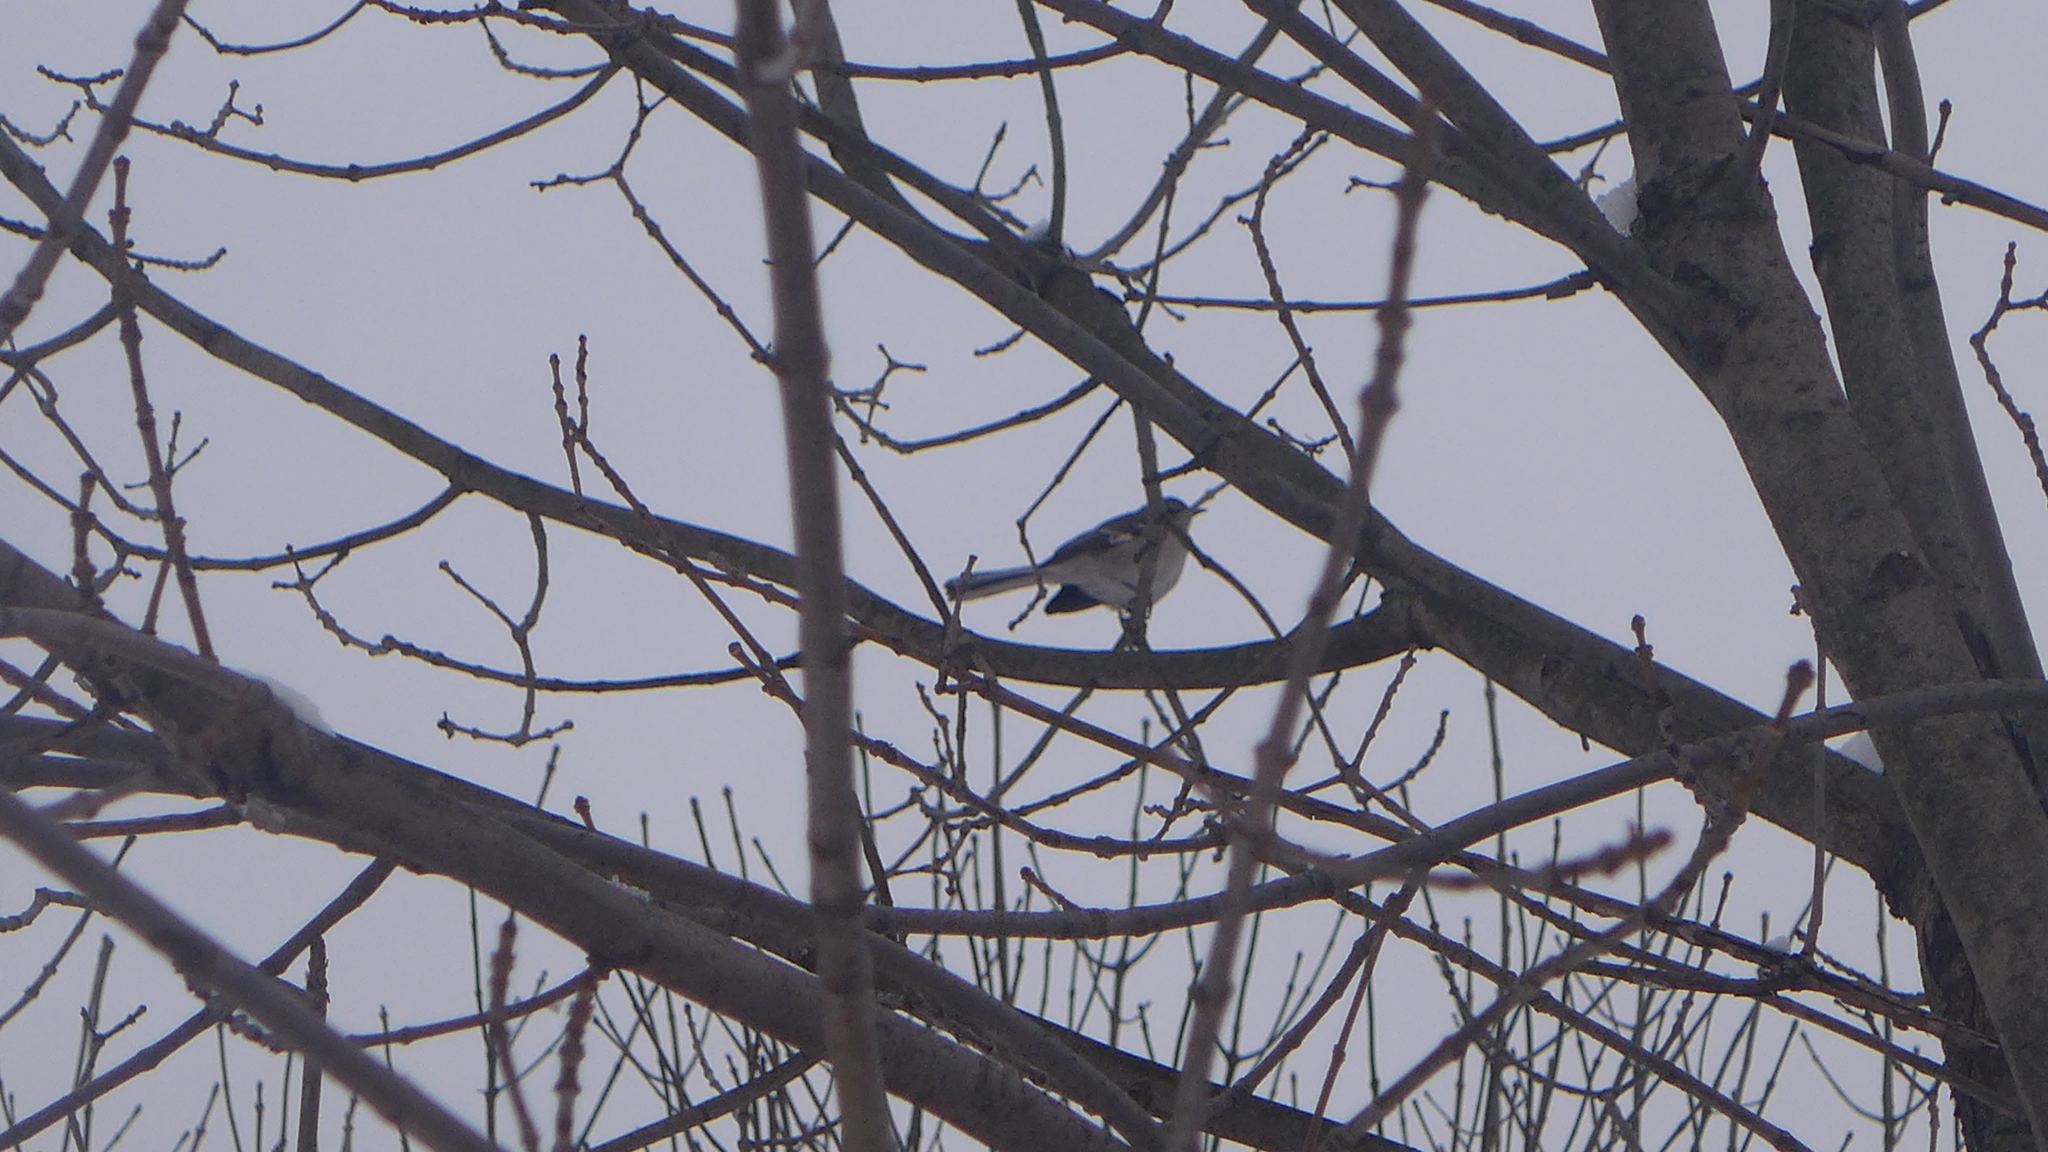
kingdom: Animalia
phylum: Chordata
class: Aves
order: Passeriformes
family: Mimidae
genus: Mimus
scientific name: Mimus polyglottos
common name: Northern mockingbird
